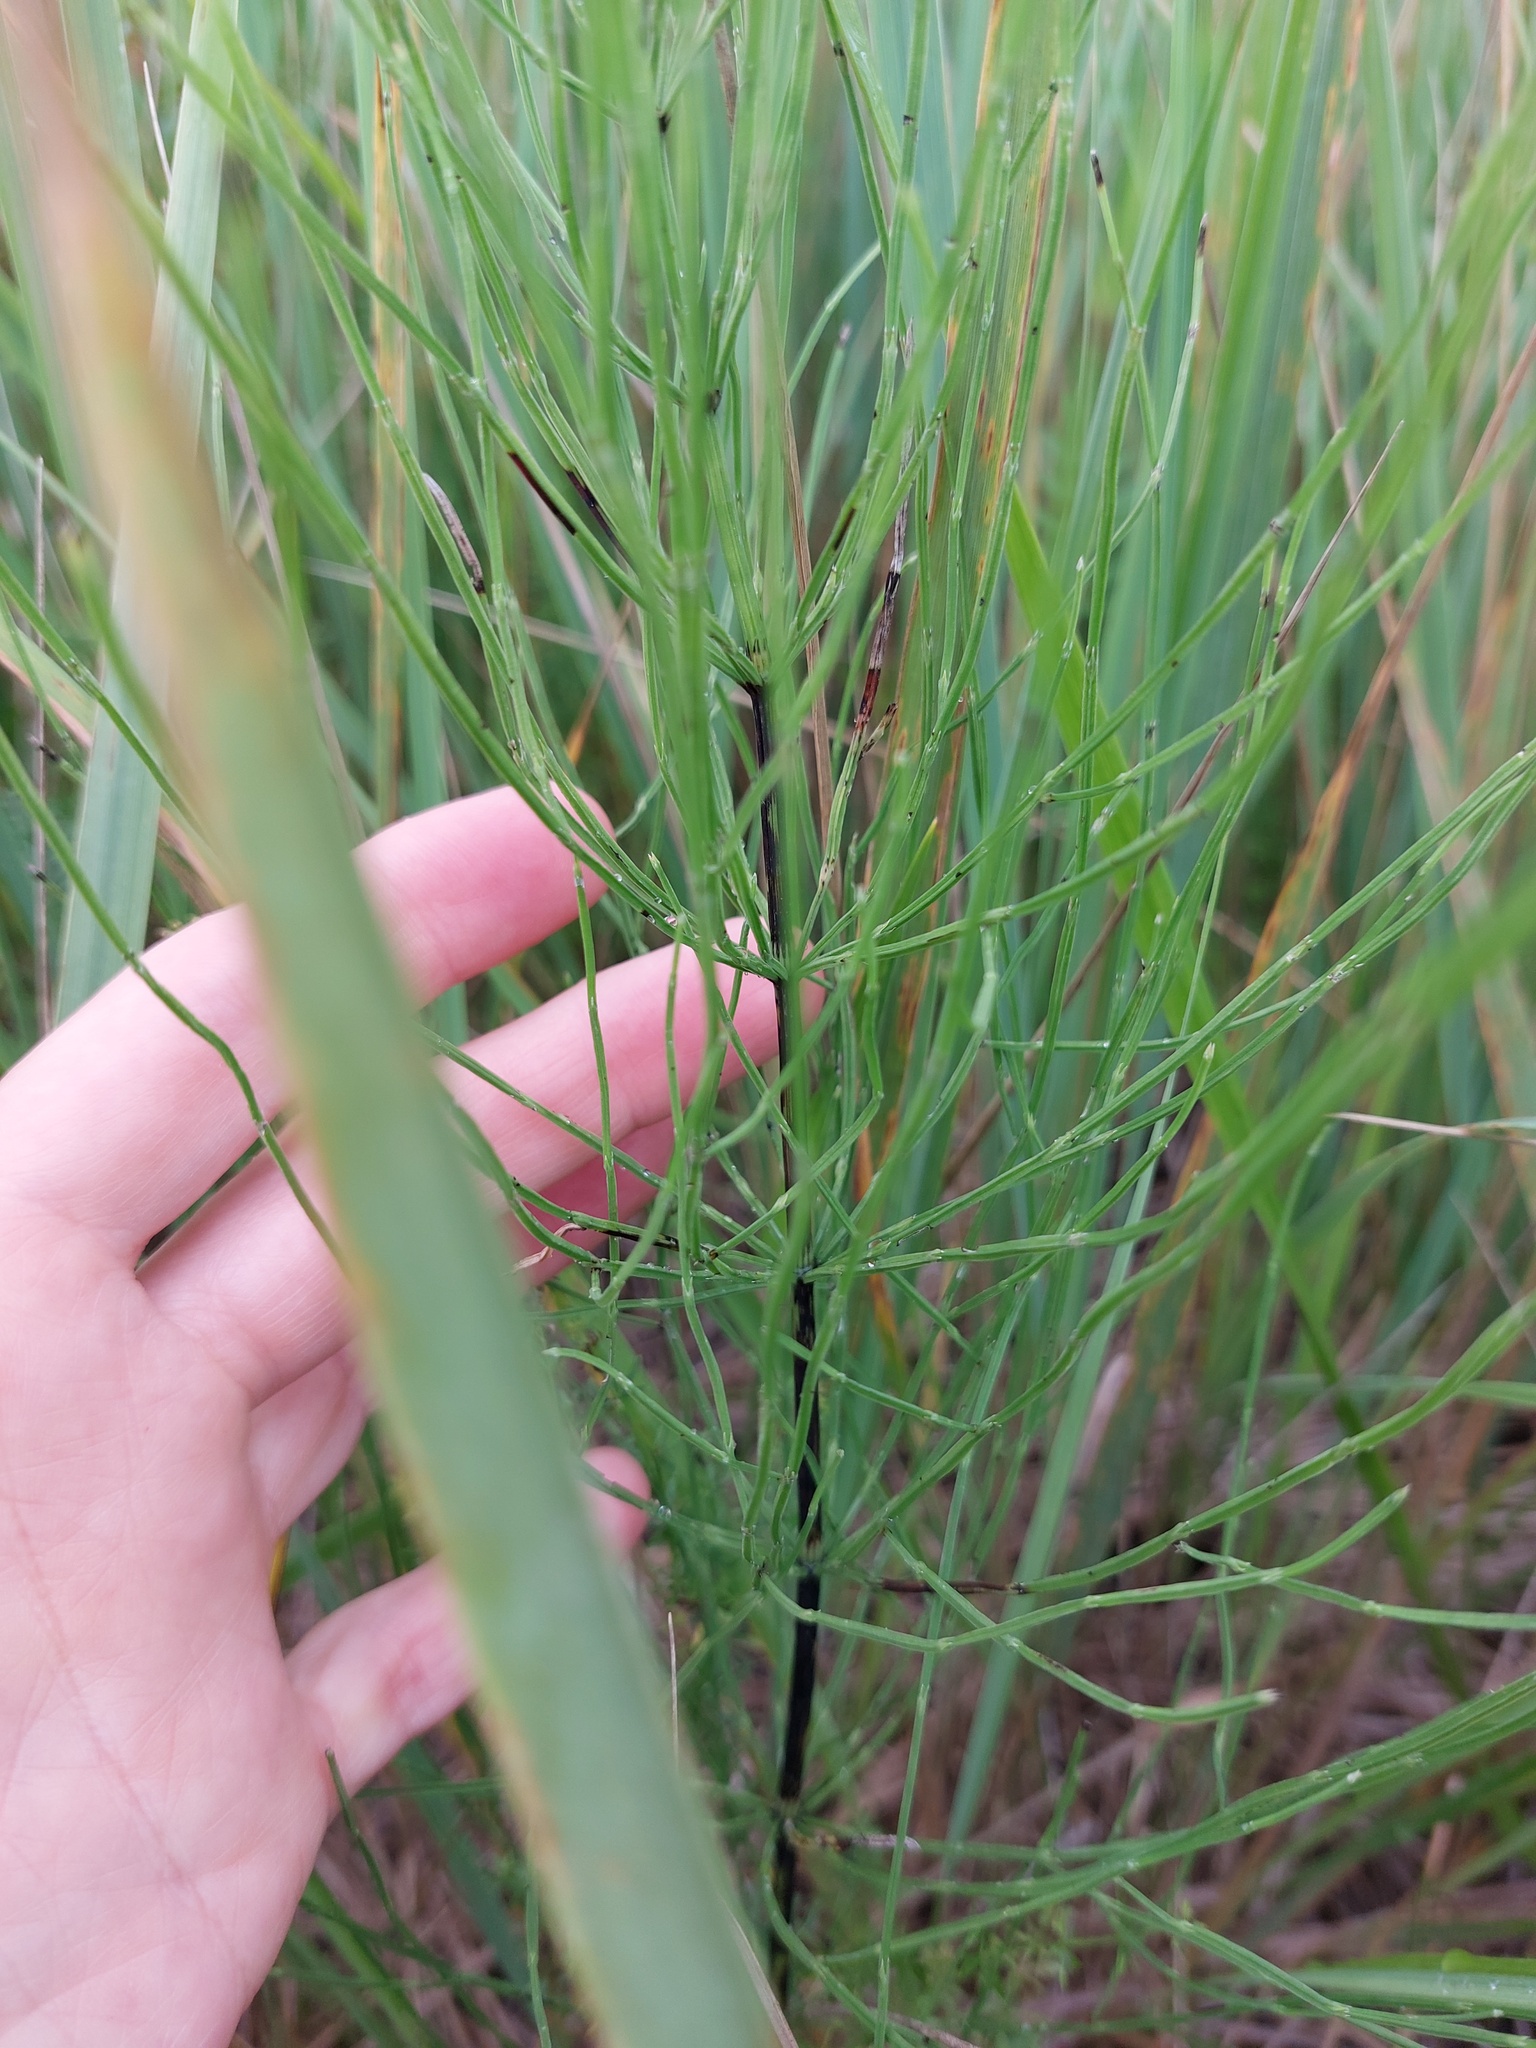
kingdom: Plantae
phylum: Tracheophyta
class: Polypodiopsida
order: Equisetales
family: Equisetaceae
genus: Equisetum
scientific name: Equisetum arvense
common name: Field horsetail
